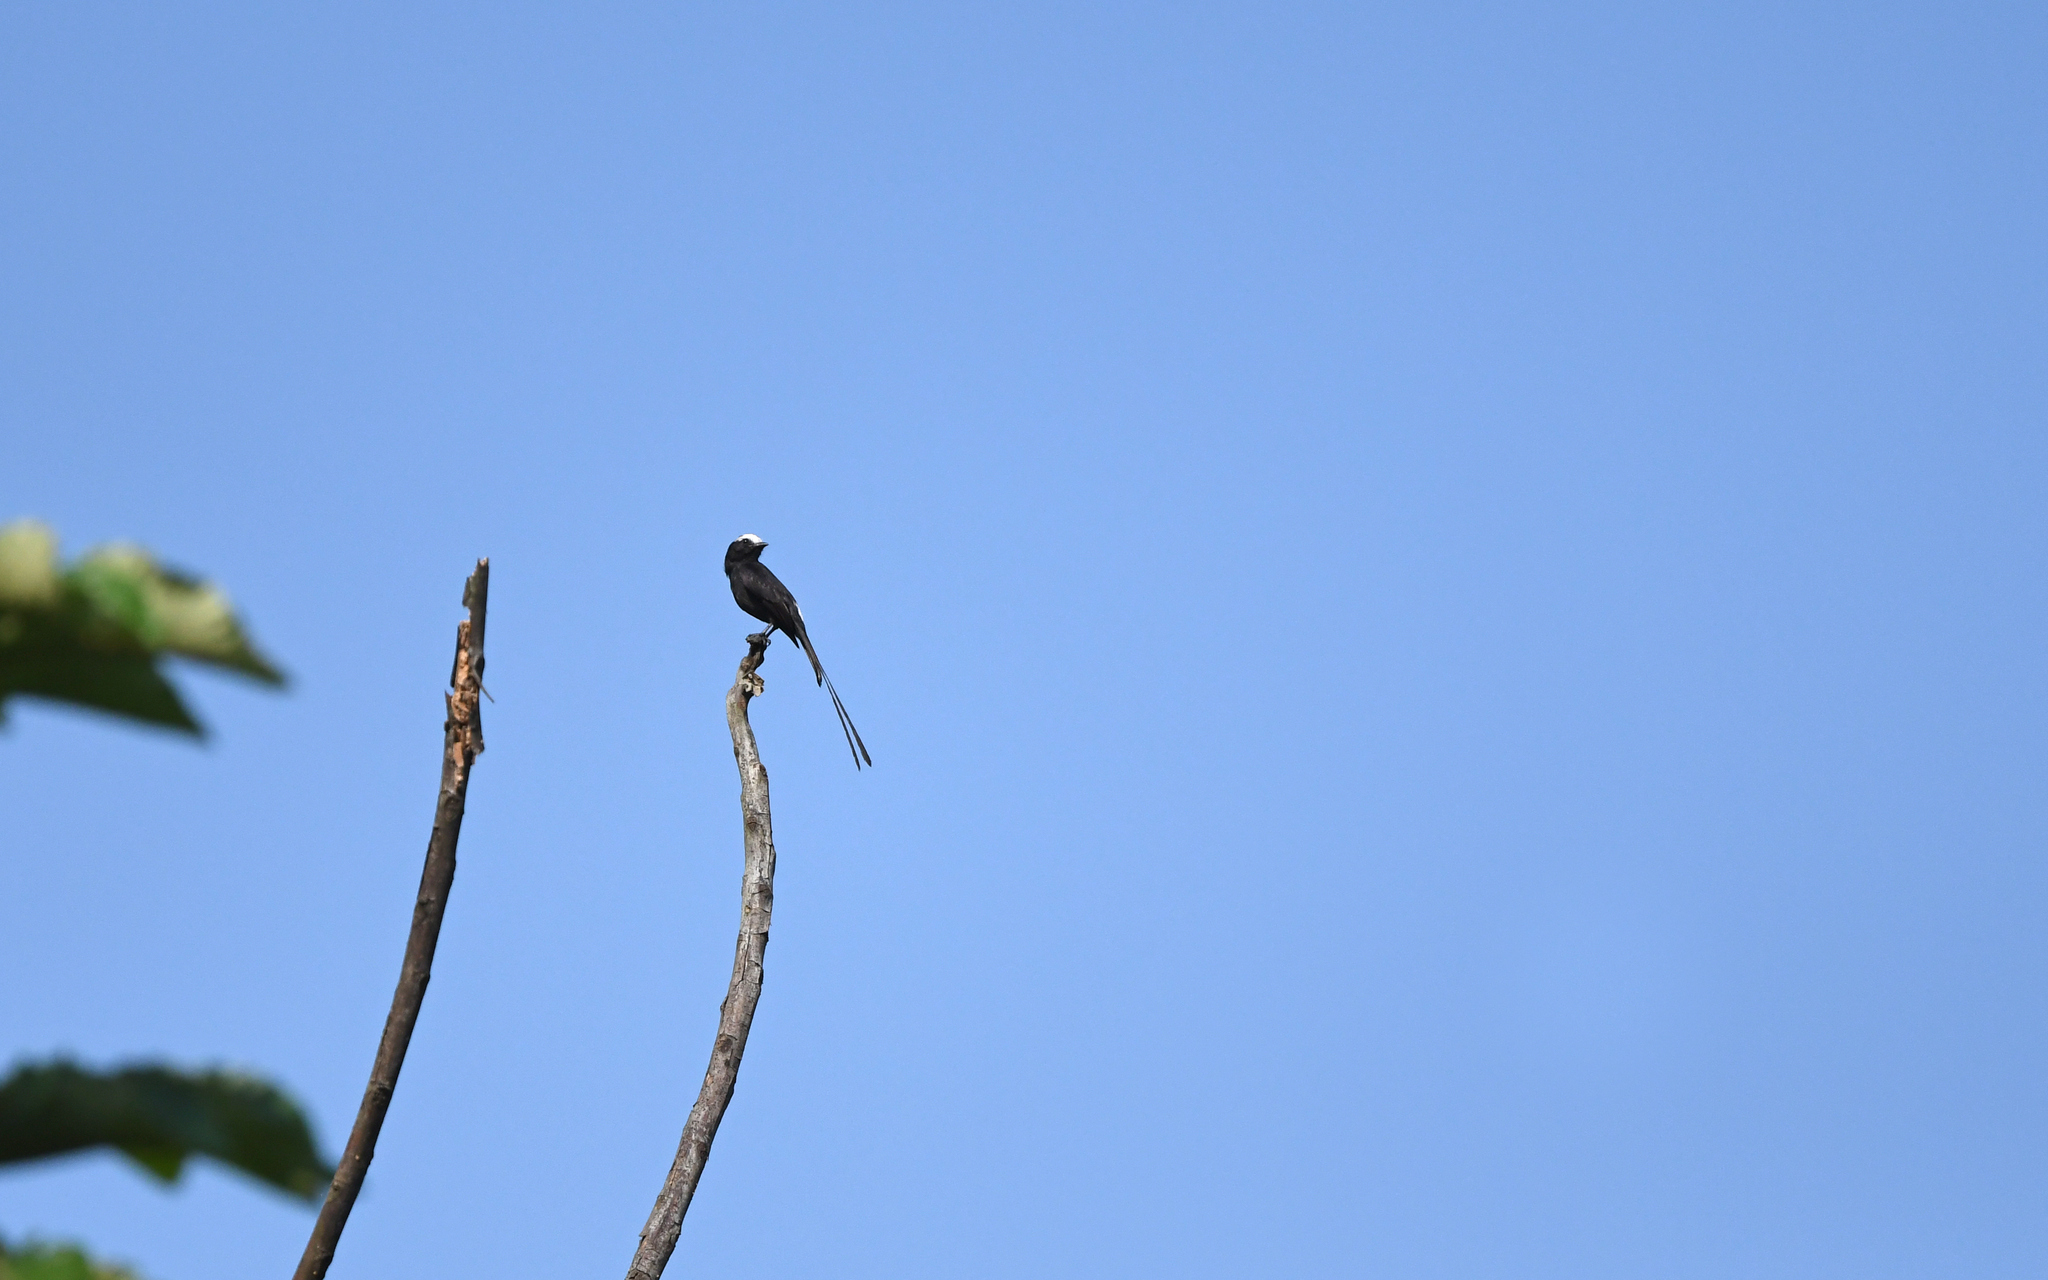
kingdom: Animalia
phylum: Chordata
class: Aves
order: Passeriformes
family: Tyrannidae
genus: Colonia
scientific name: Colonia colonus
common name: Long-tailed tyrant
